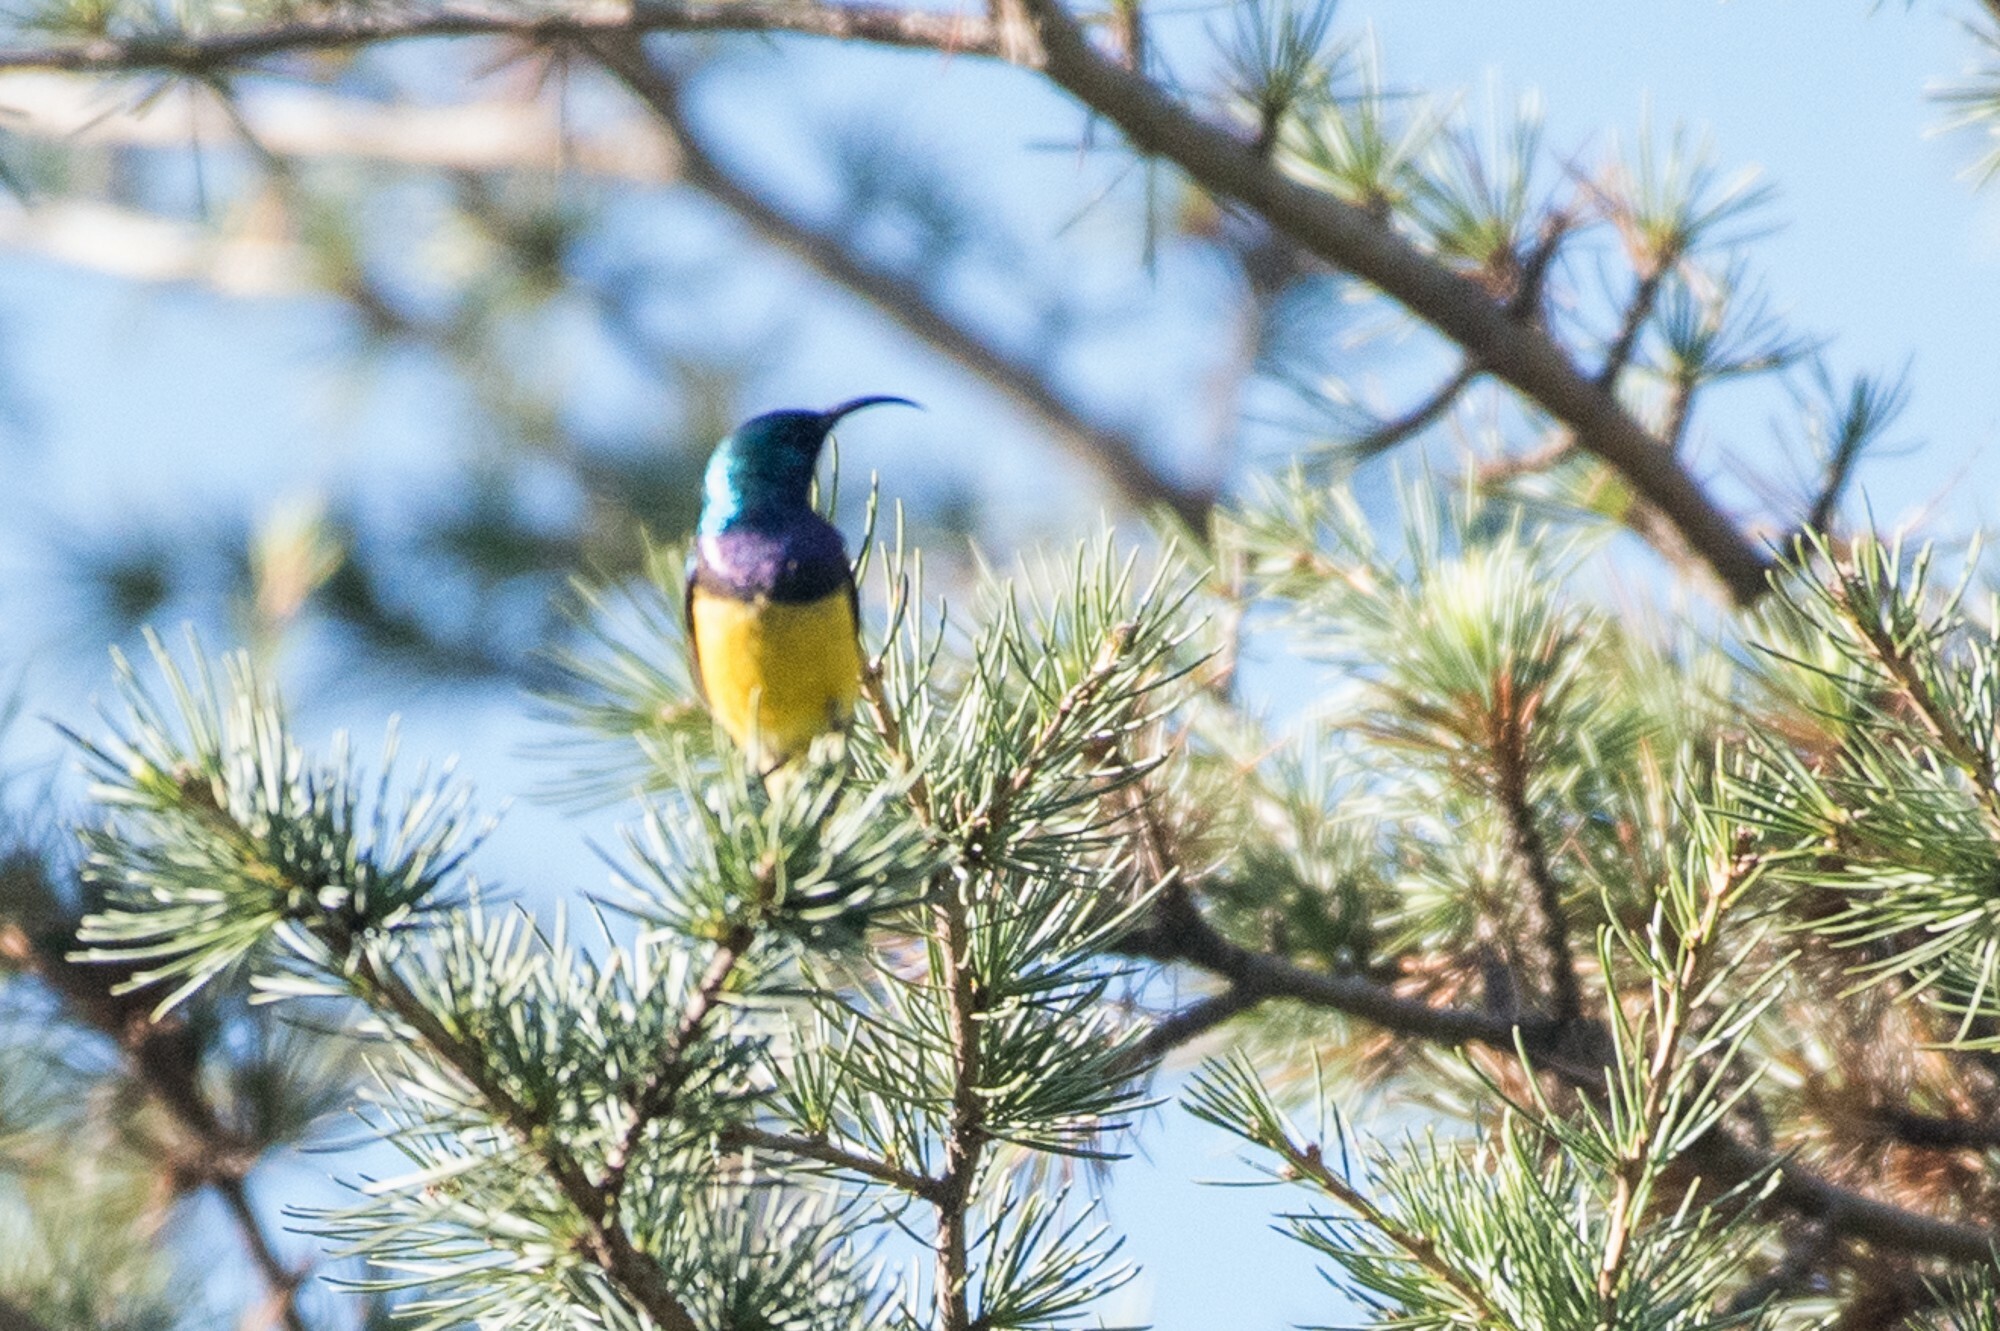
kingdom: Animalia
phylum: Chordata
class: Aves
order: Passeriformes
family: Nectariniidae
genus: Cinnyris
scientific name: Cinnyris venustus
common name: Variable sunbird
